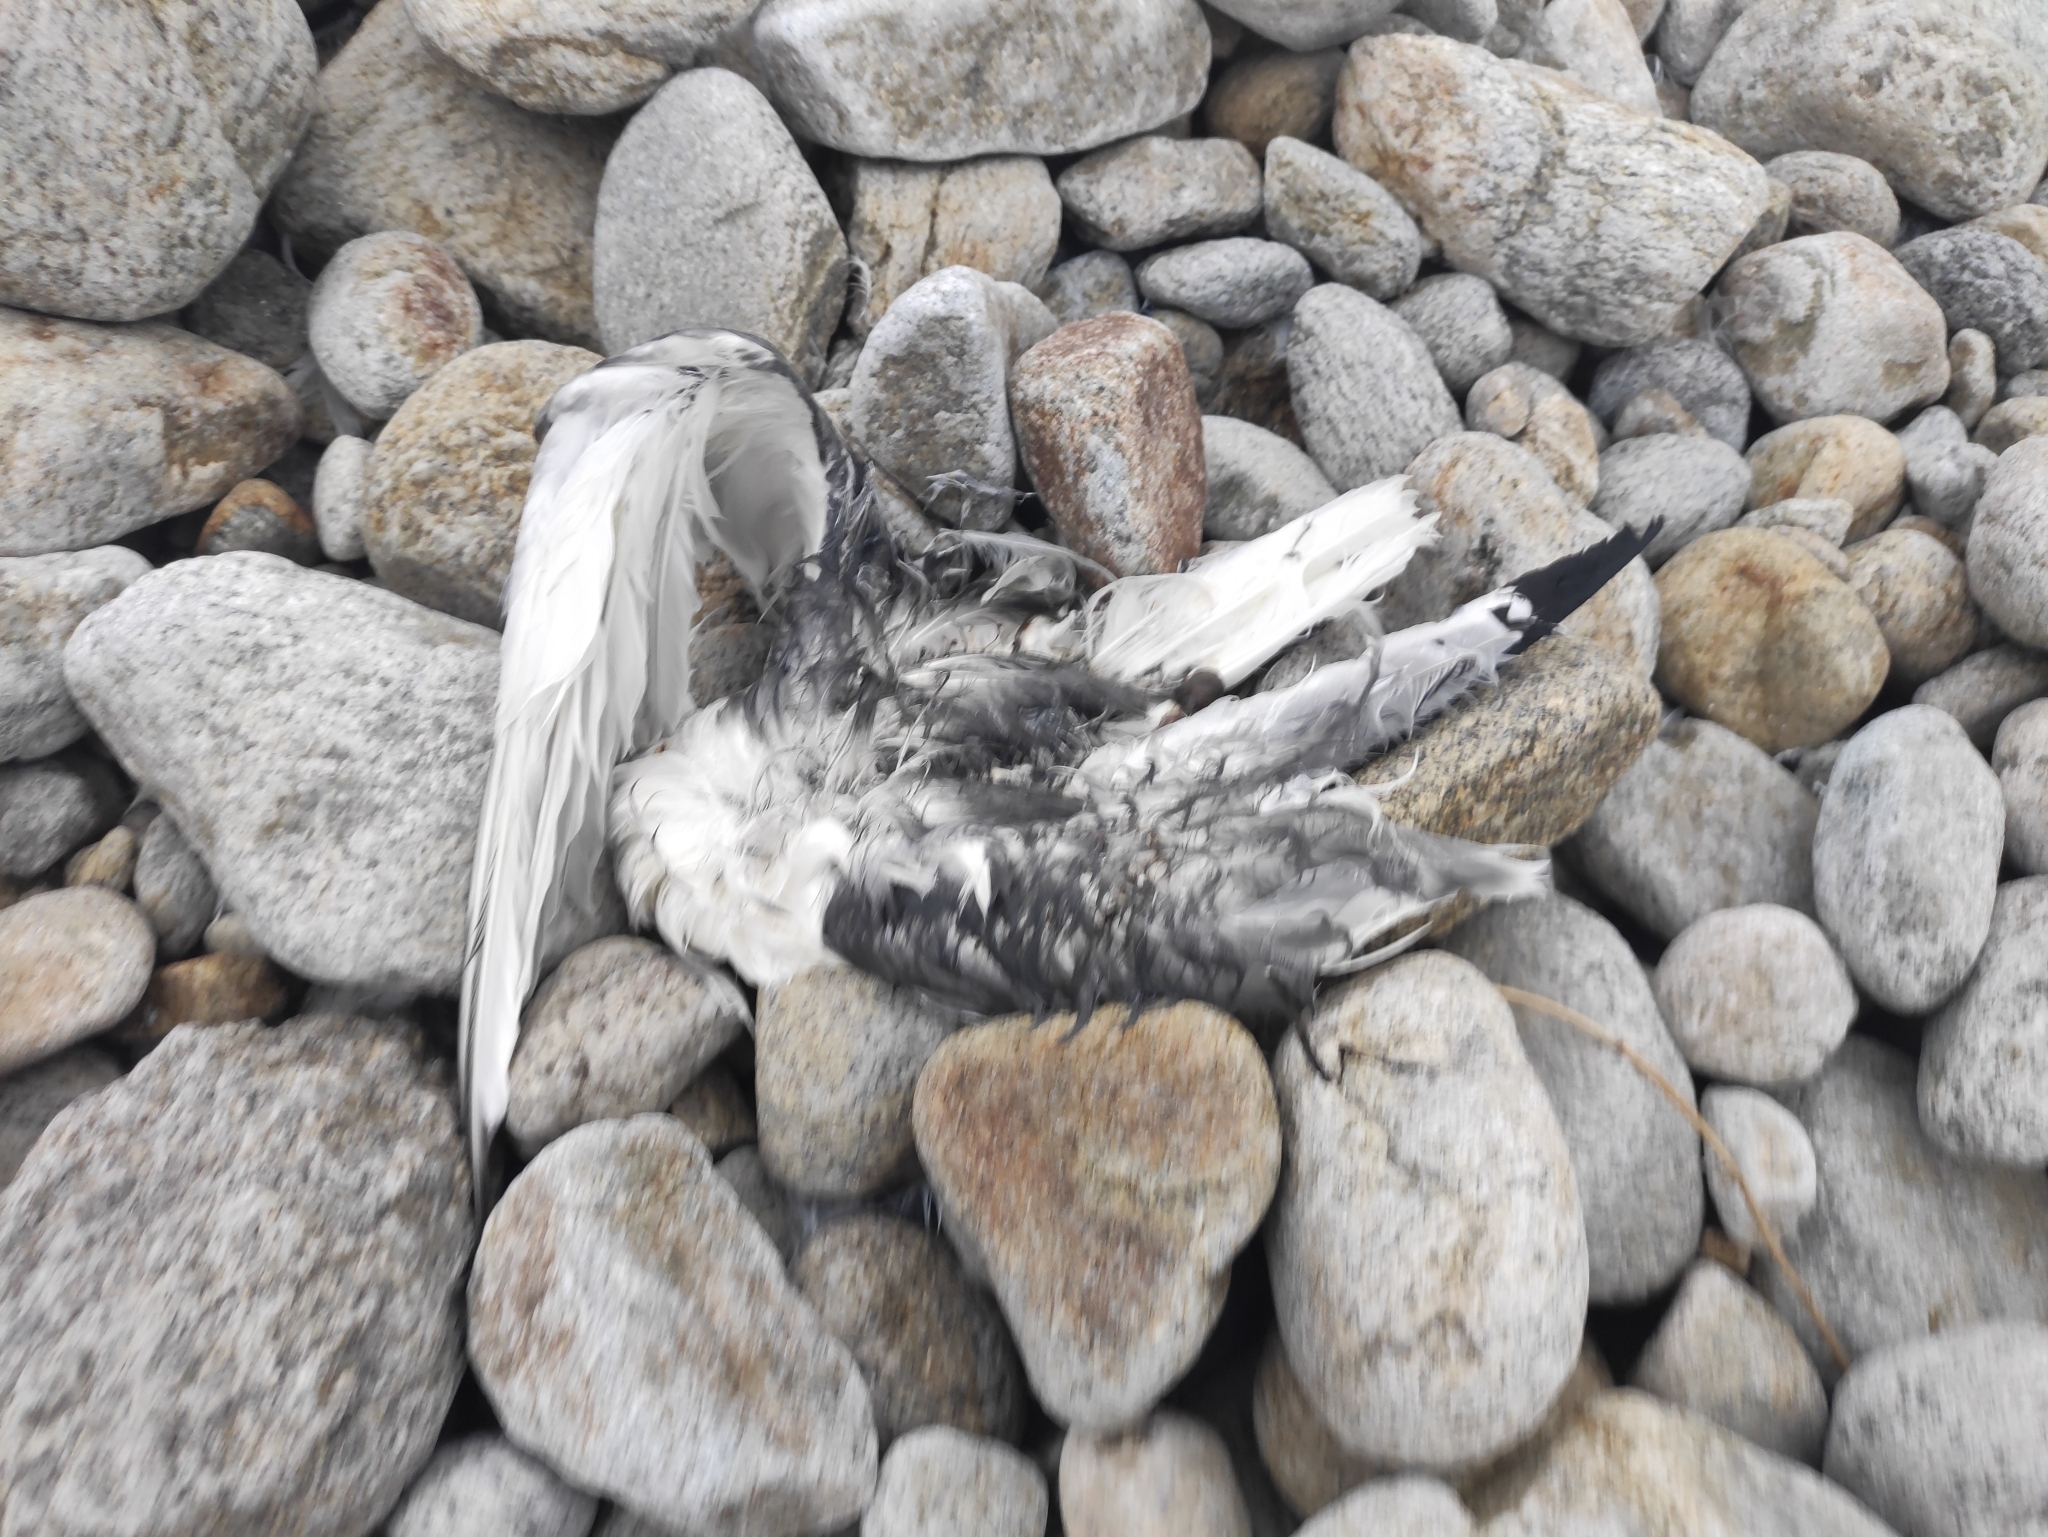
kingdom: Animalia
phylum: Chordata
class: Aves
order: Charadriiformes
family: Laridae
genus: Rissa
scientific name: Rissa tridactyla
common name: Black-legged kittiwake
